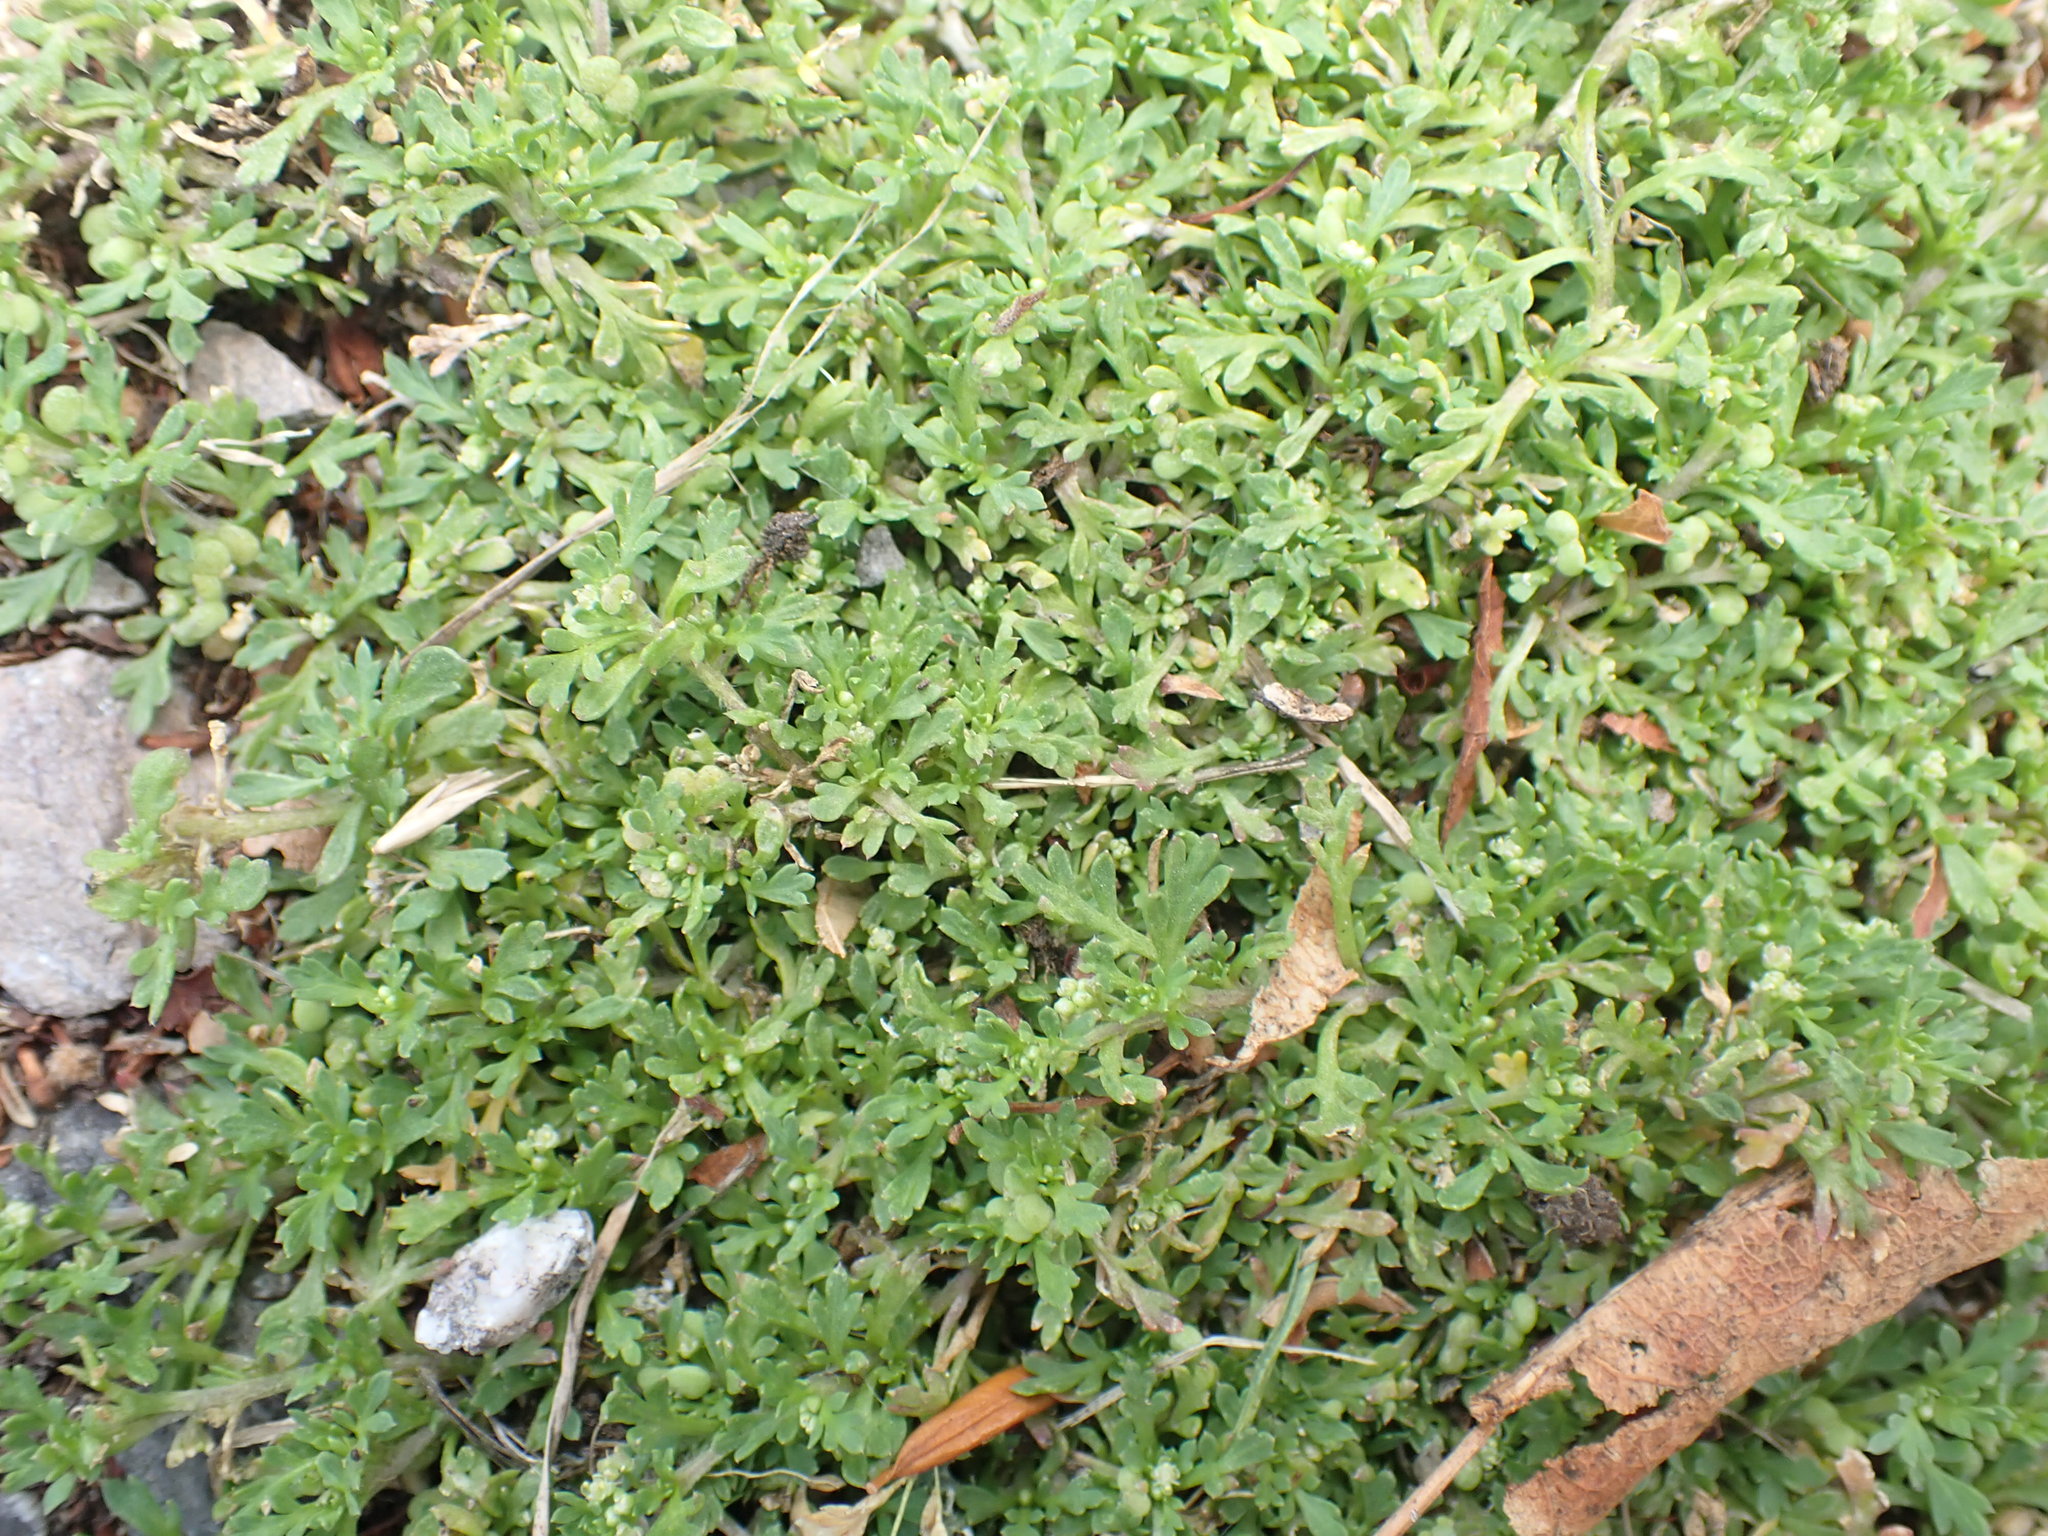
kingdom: Plantae
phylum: Tracheophyta
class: Magnoliopsida
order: Brassicales
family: Brassicaceae
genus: Lepidium
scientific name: Lepidium didymum
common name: Lesser swinecress
